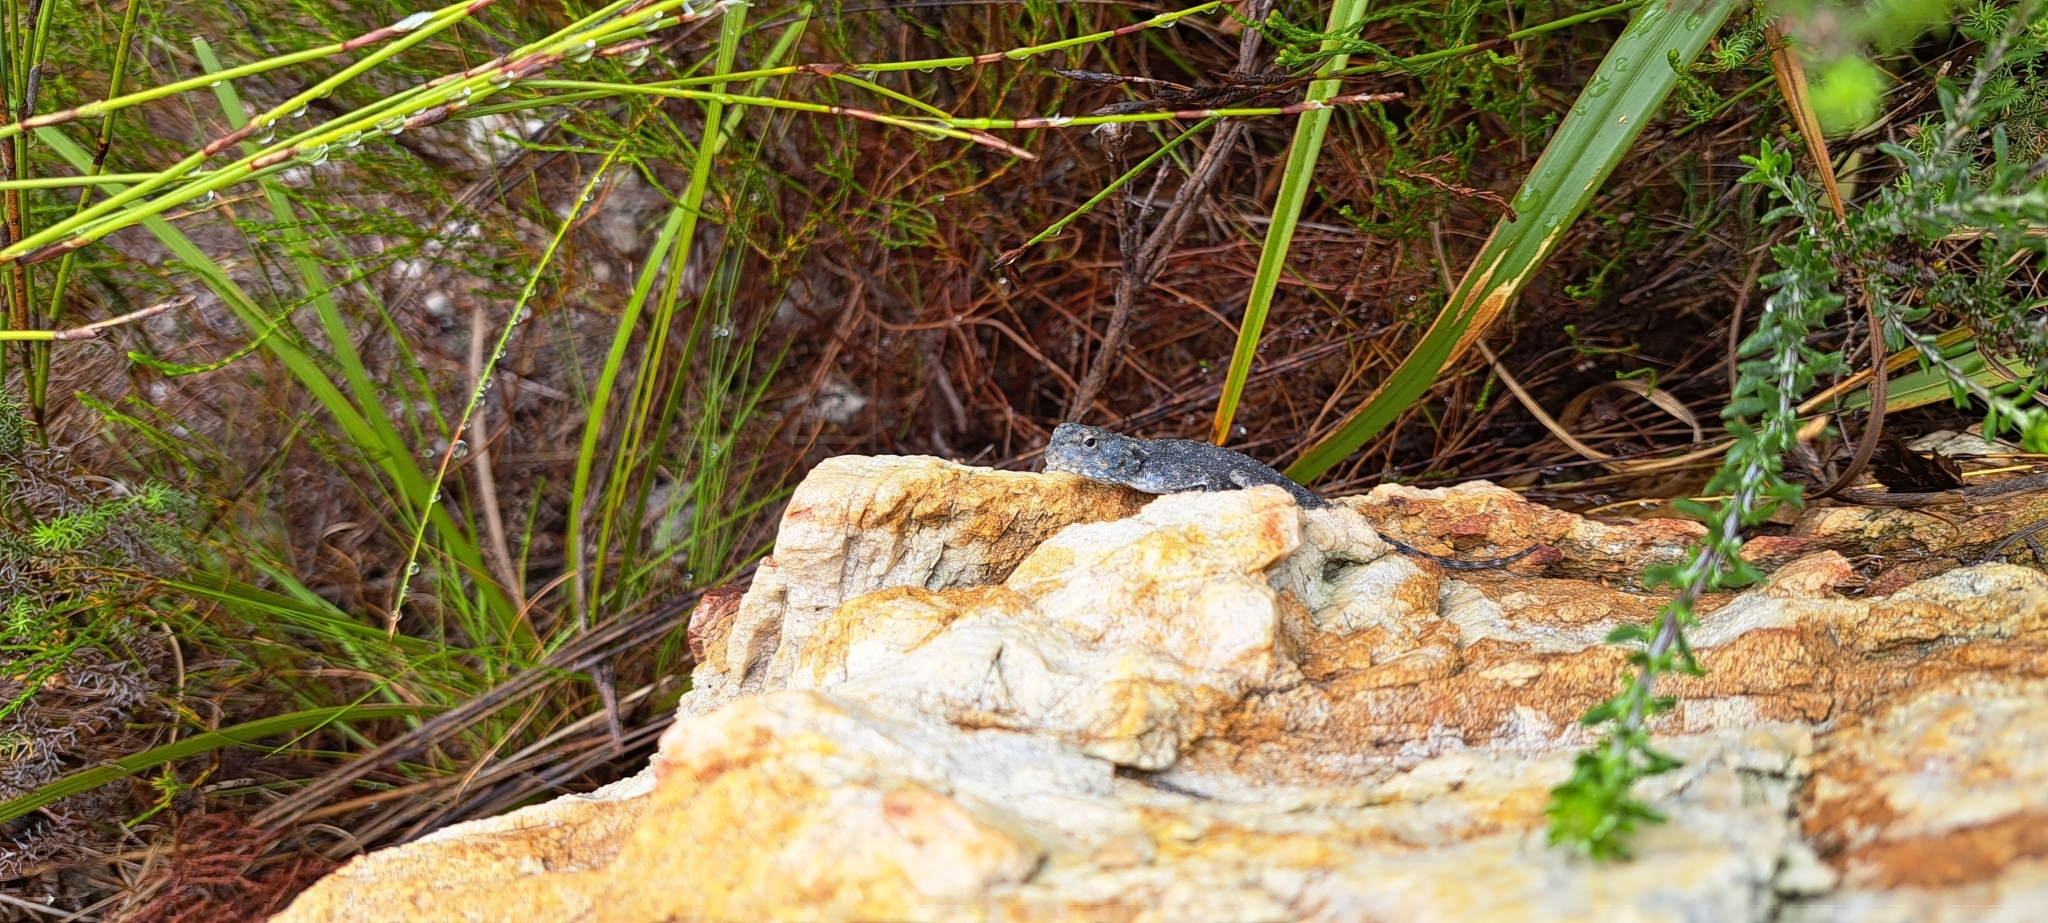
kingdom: Animalia
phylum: Chordata
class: Squamata
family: Agamidae
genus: Agama
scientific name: Agama atra
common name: Southern african rock agama
